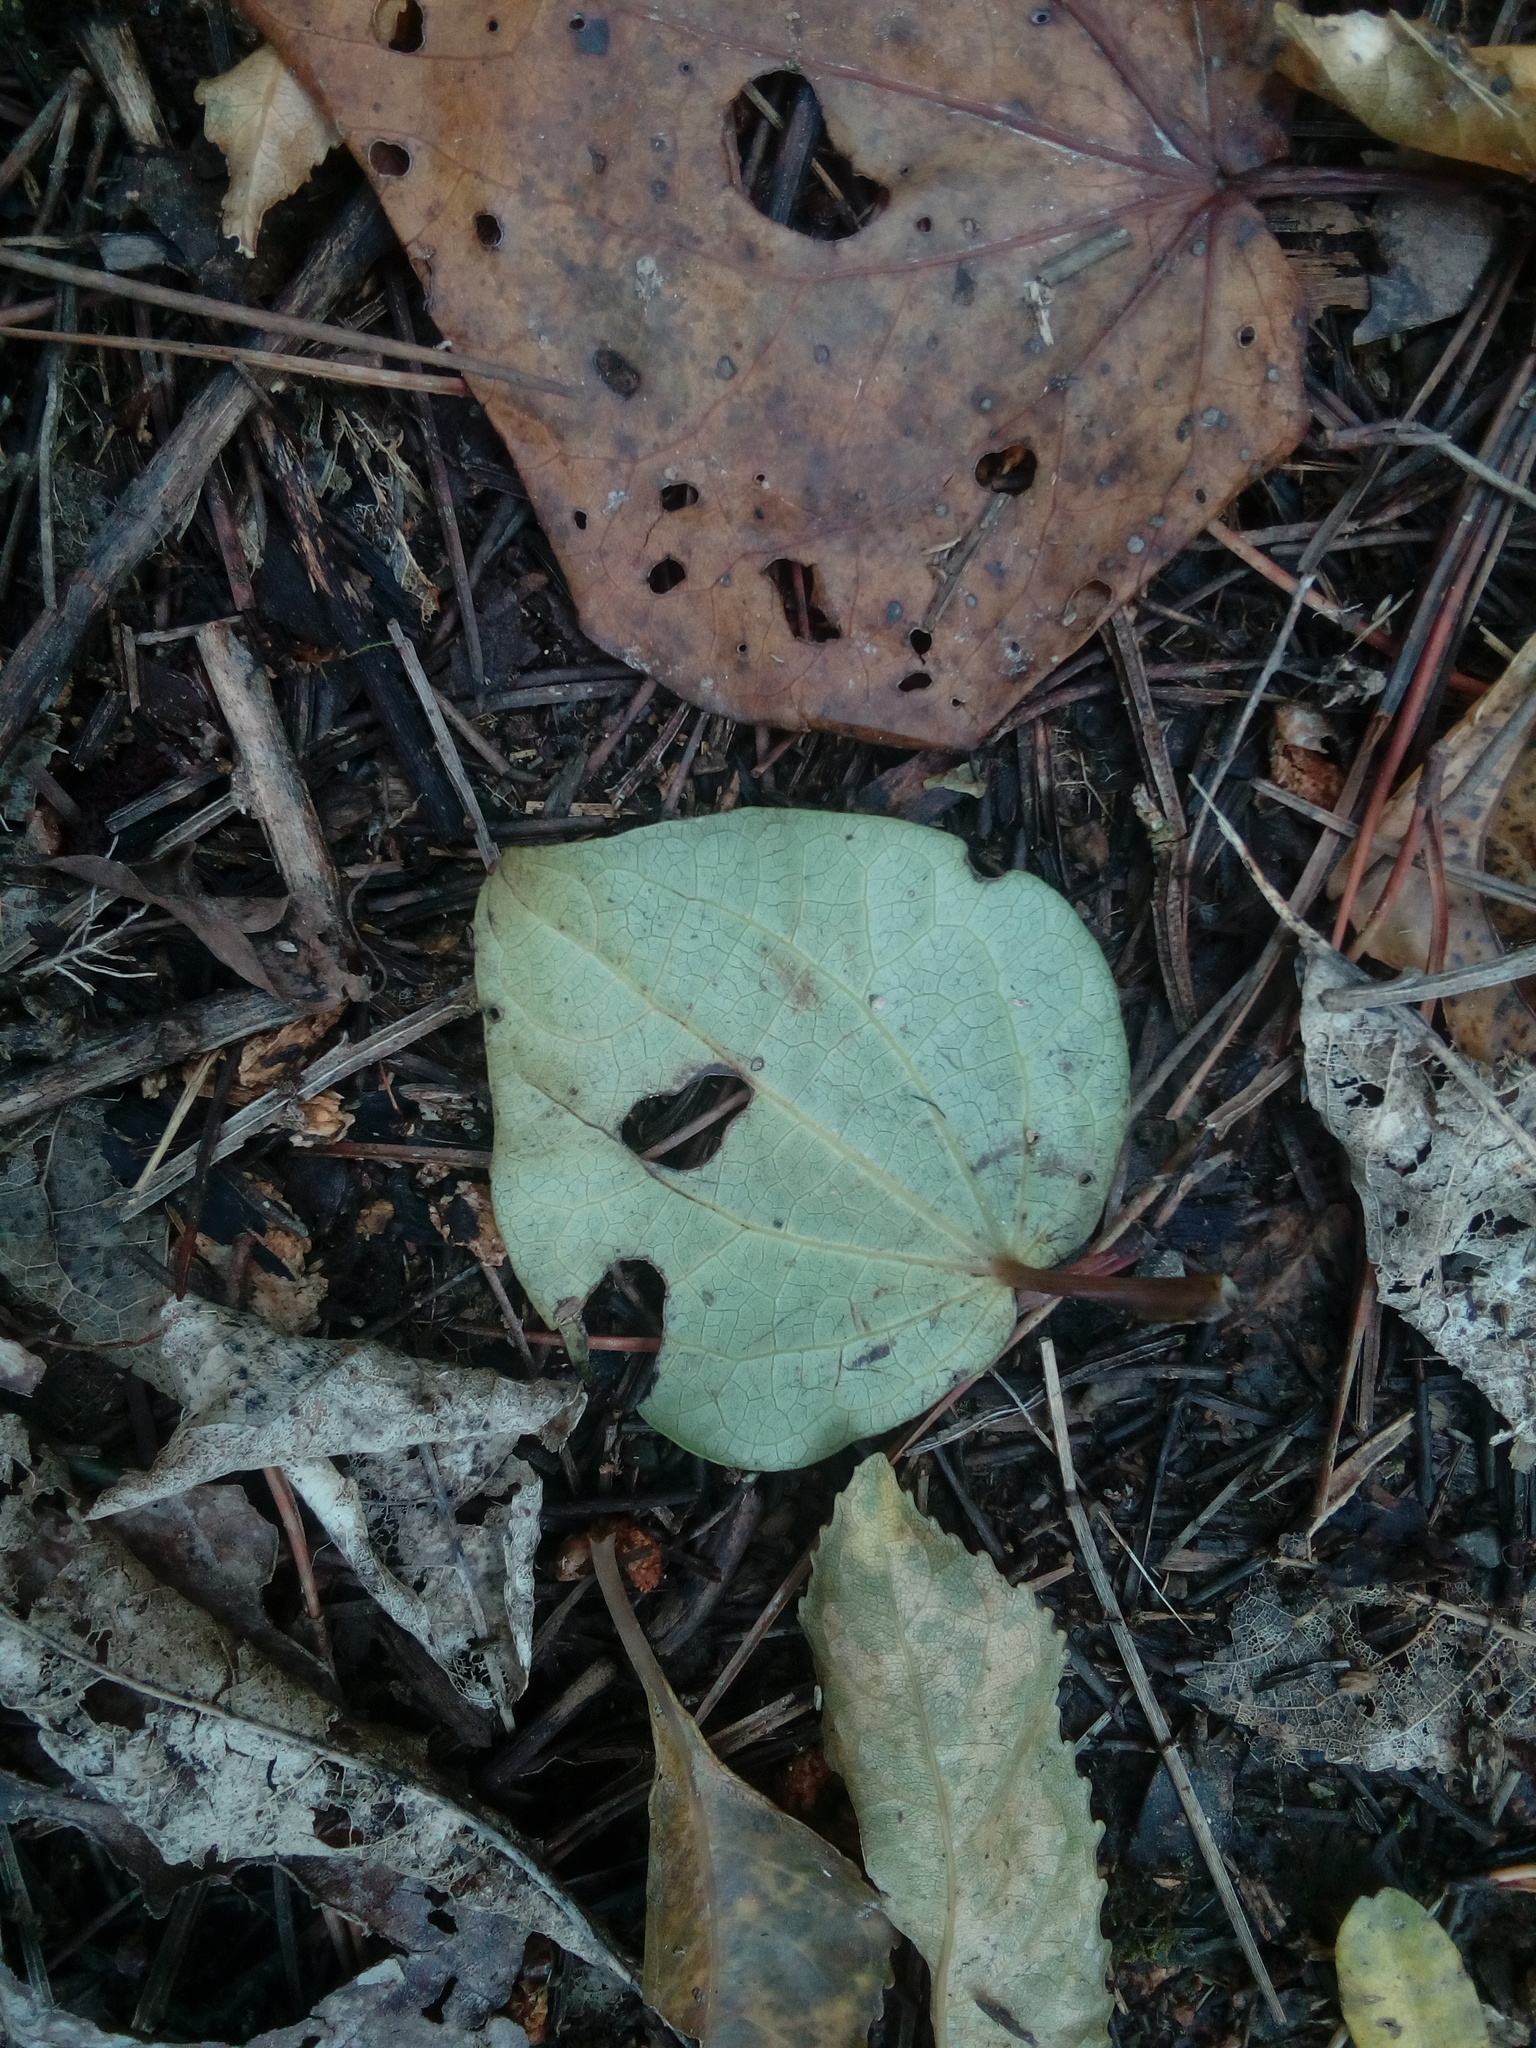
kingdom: Plantae
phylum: Tracheophyta
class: Magnoliopsida
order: Piperales
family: Piperaceae
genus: Macropiper
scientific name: Macropiper excelsum
